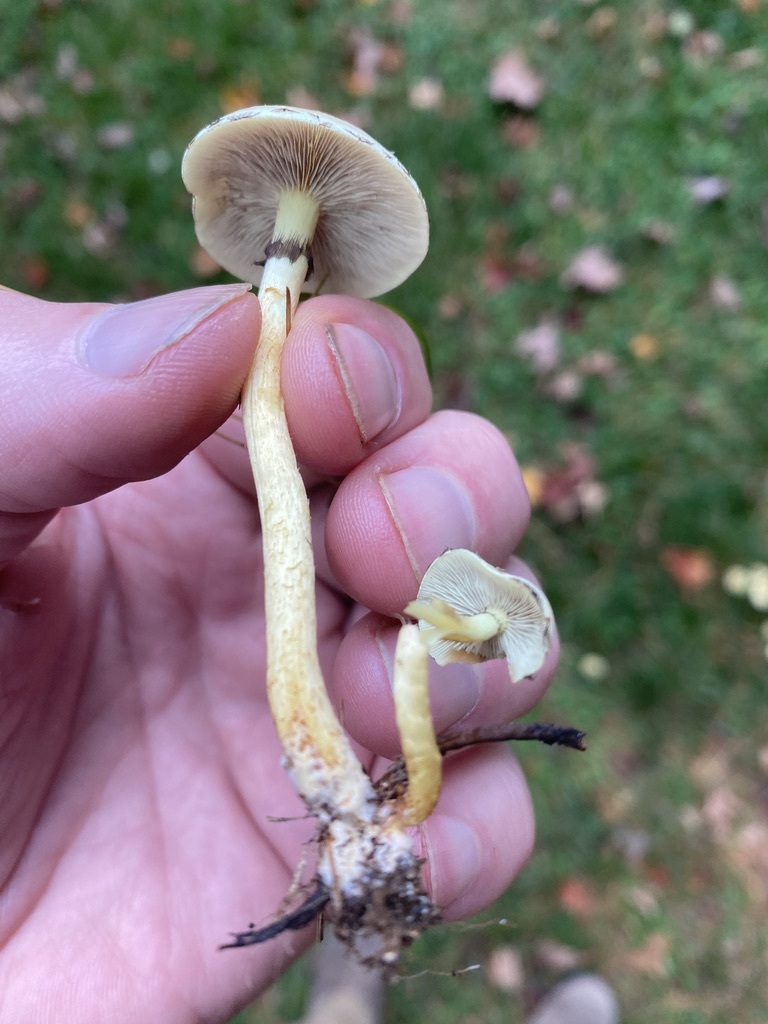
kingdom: Fungi
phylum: Basidiomycota
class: Agaricomycetes
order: Agaricales
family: Marasmiaceae
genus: Marasmius
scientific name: Marasmius oreades
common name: Fairy ring champignon
